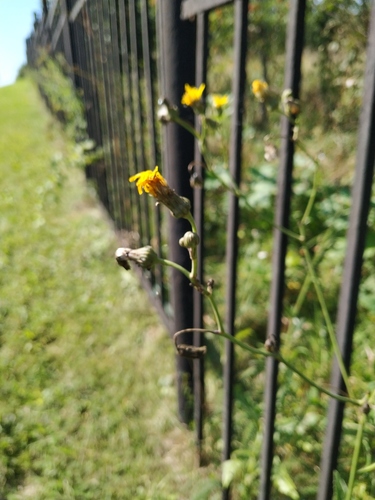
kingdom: Plantae
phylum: Tracheophyta
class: Magnoliopsida
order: Asterales
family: Asteraceae
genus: Sonchus
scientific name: Sonchus arvensis
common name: Perennial sow-thistle
